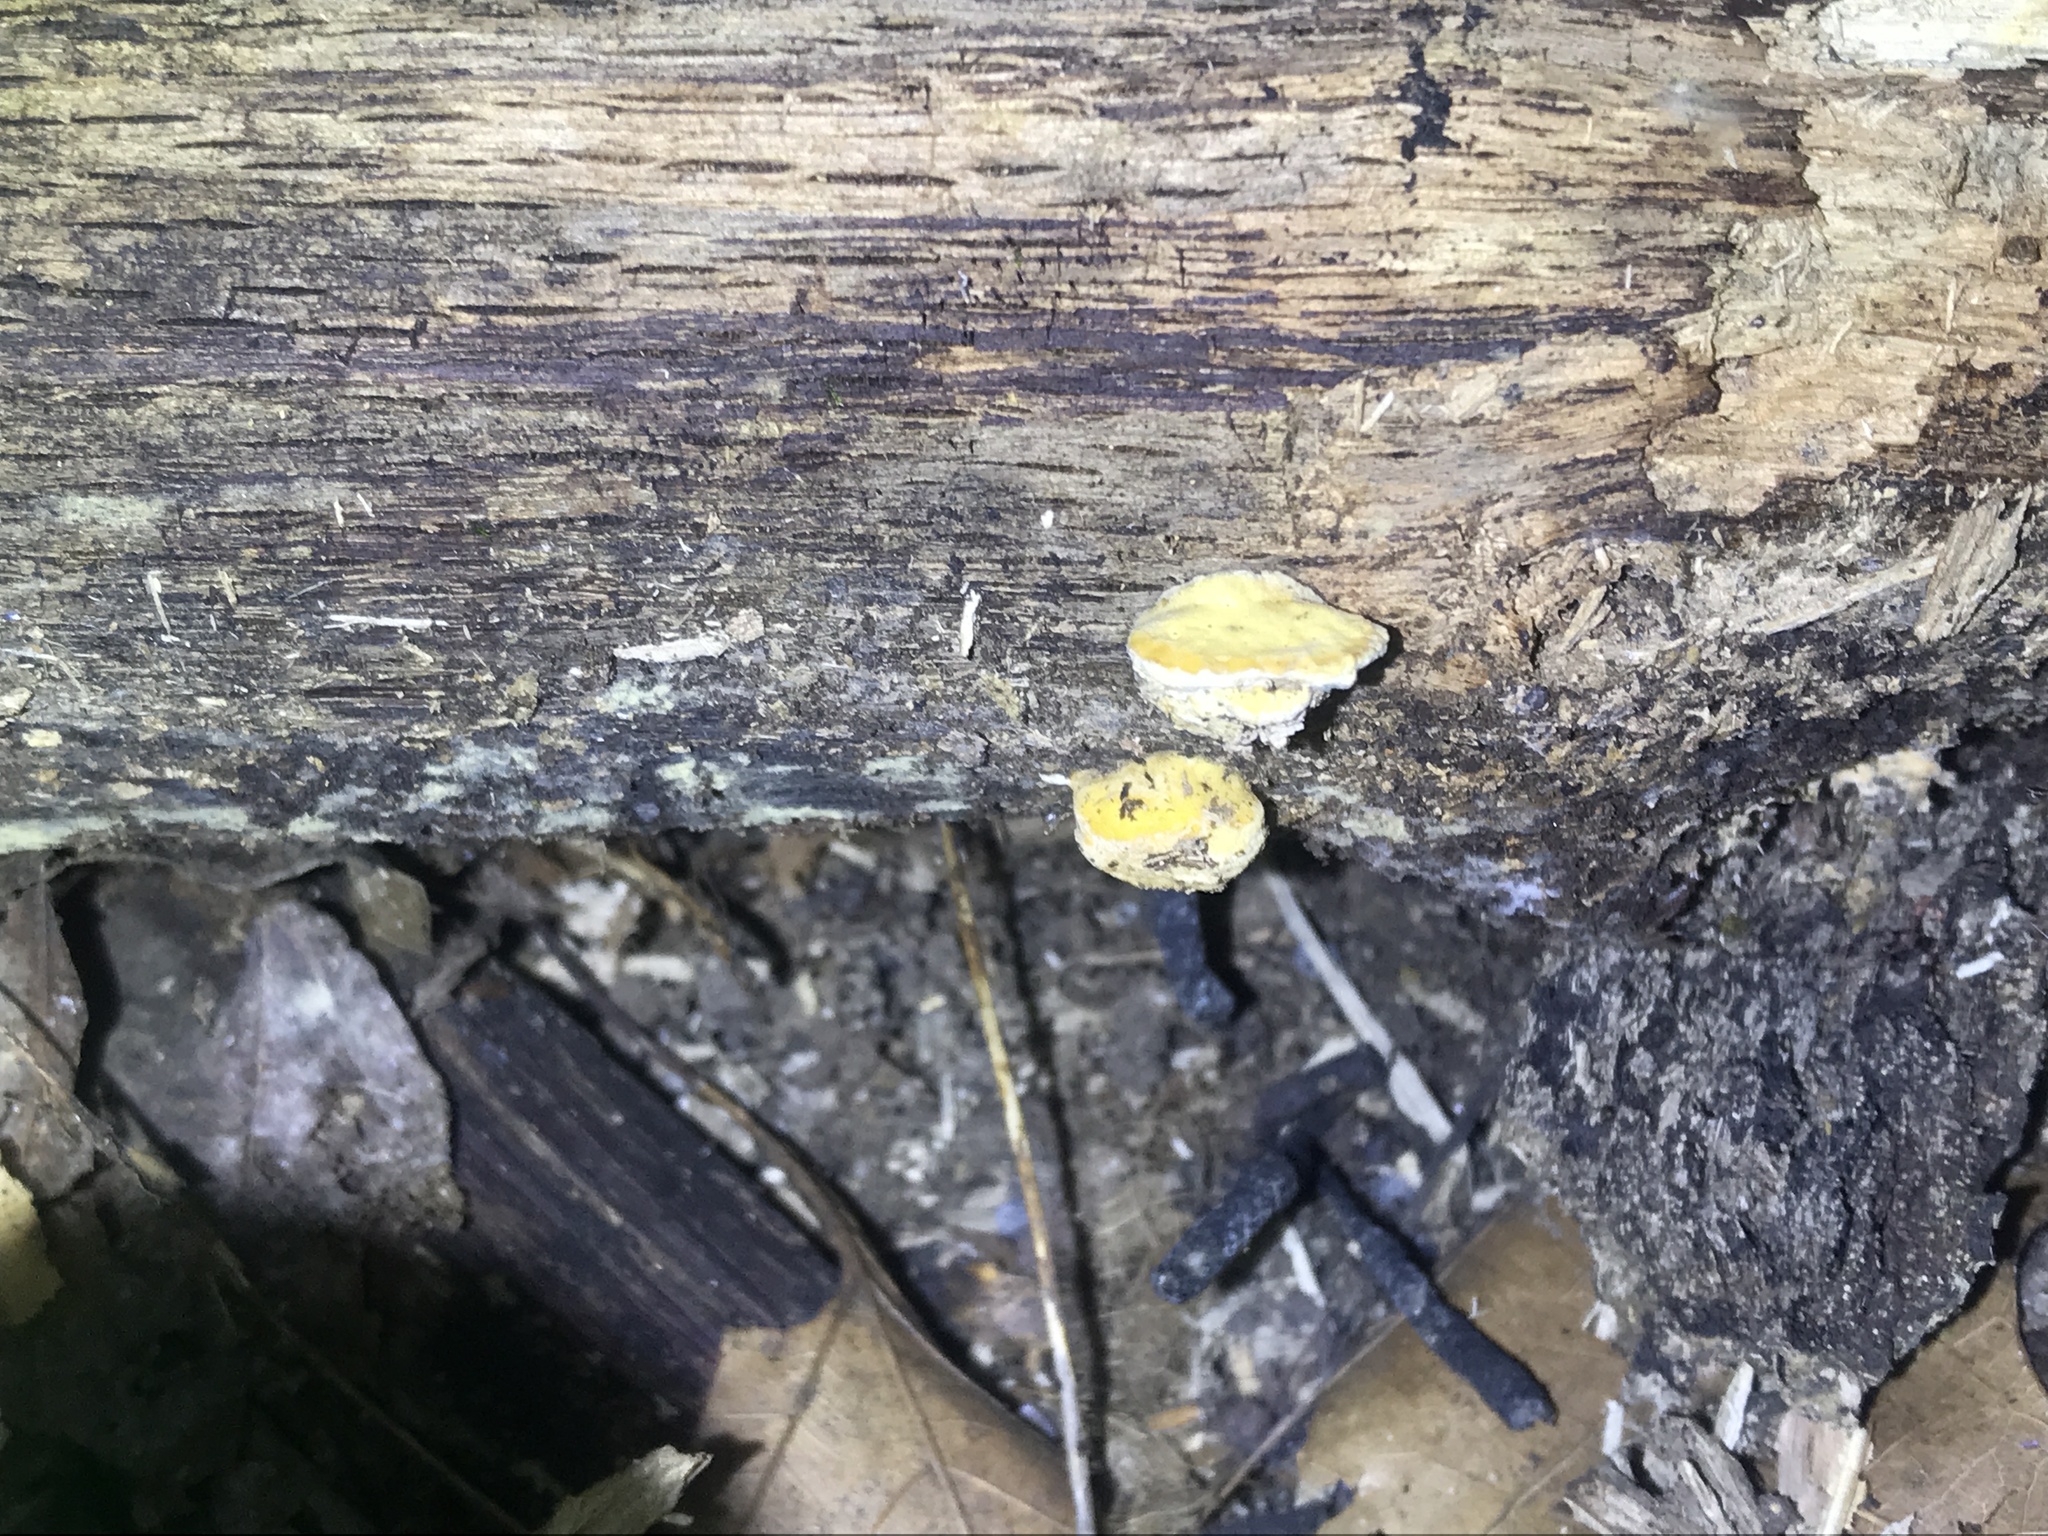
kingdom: Fungi
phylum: Basidiomycota
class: Agaricomycetes
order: Polyporales
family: Polyporaceae
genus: Perenniporia
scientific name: Perenniporia ohiensis
